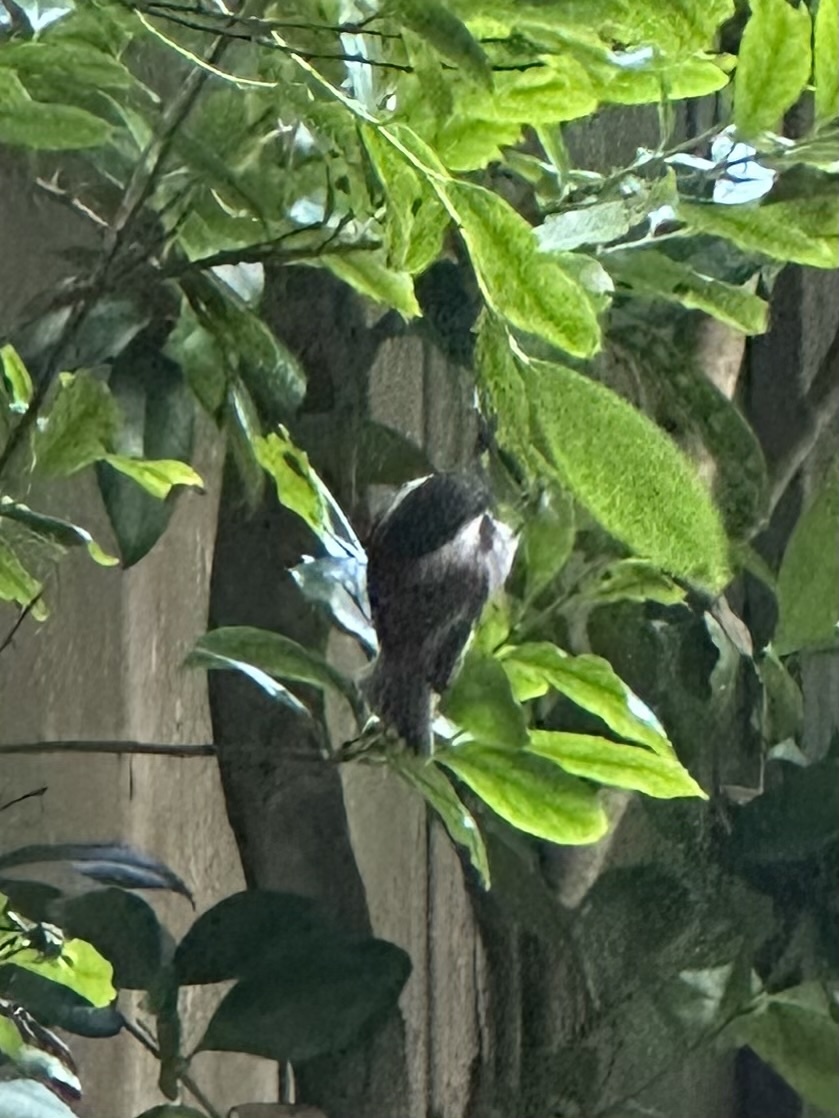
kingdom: Animalia
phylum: Chordata
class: Aves
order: Passeriformes
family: Paridae
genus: Poecile
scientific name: Poecile rufescens
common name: Chestnut-backed chickadee
